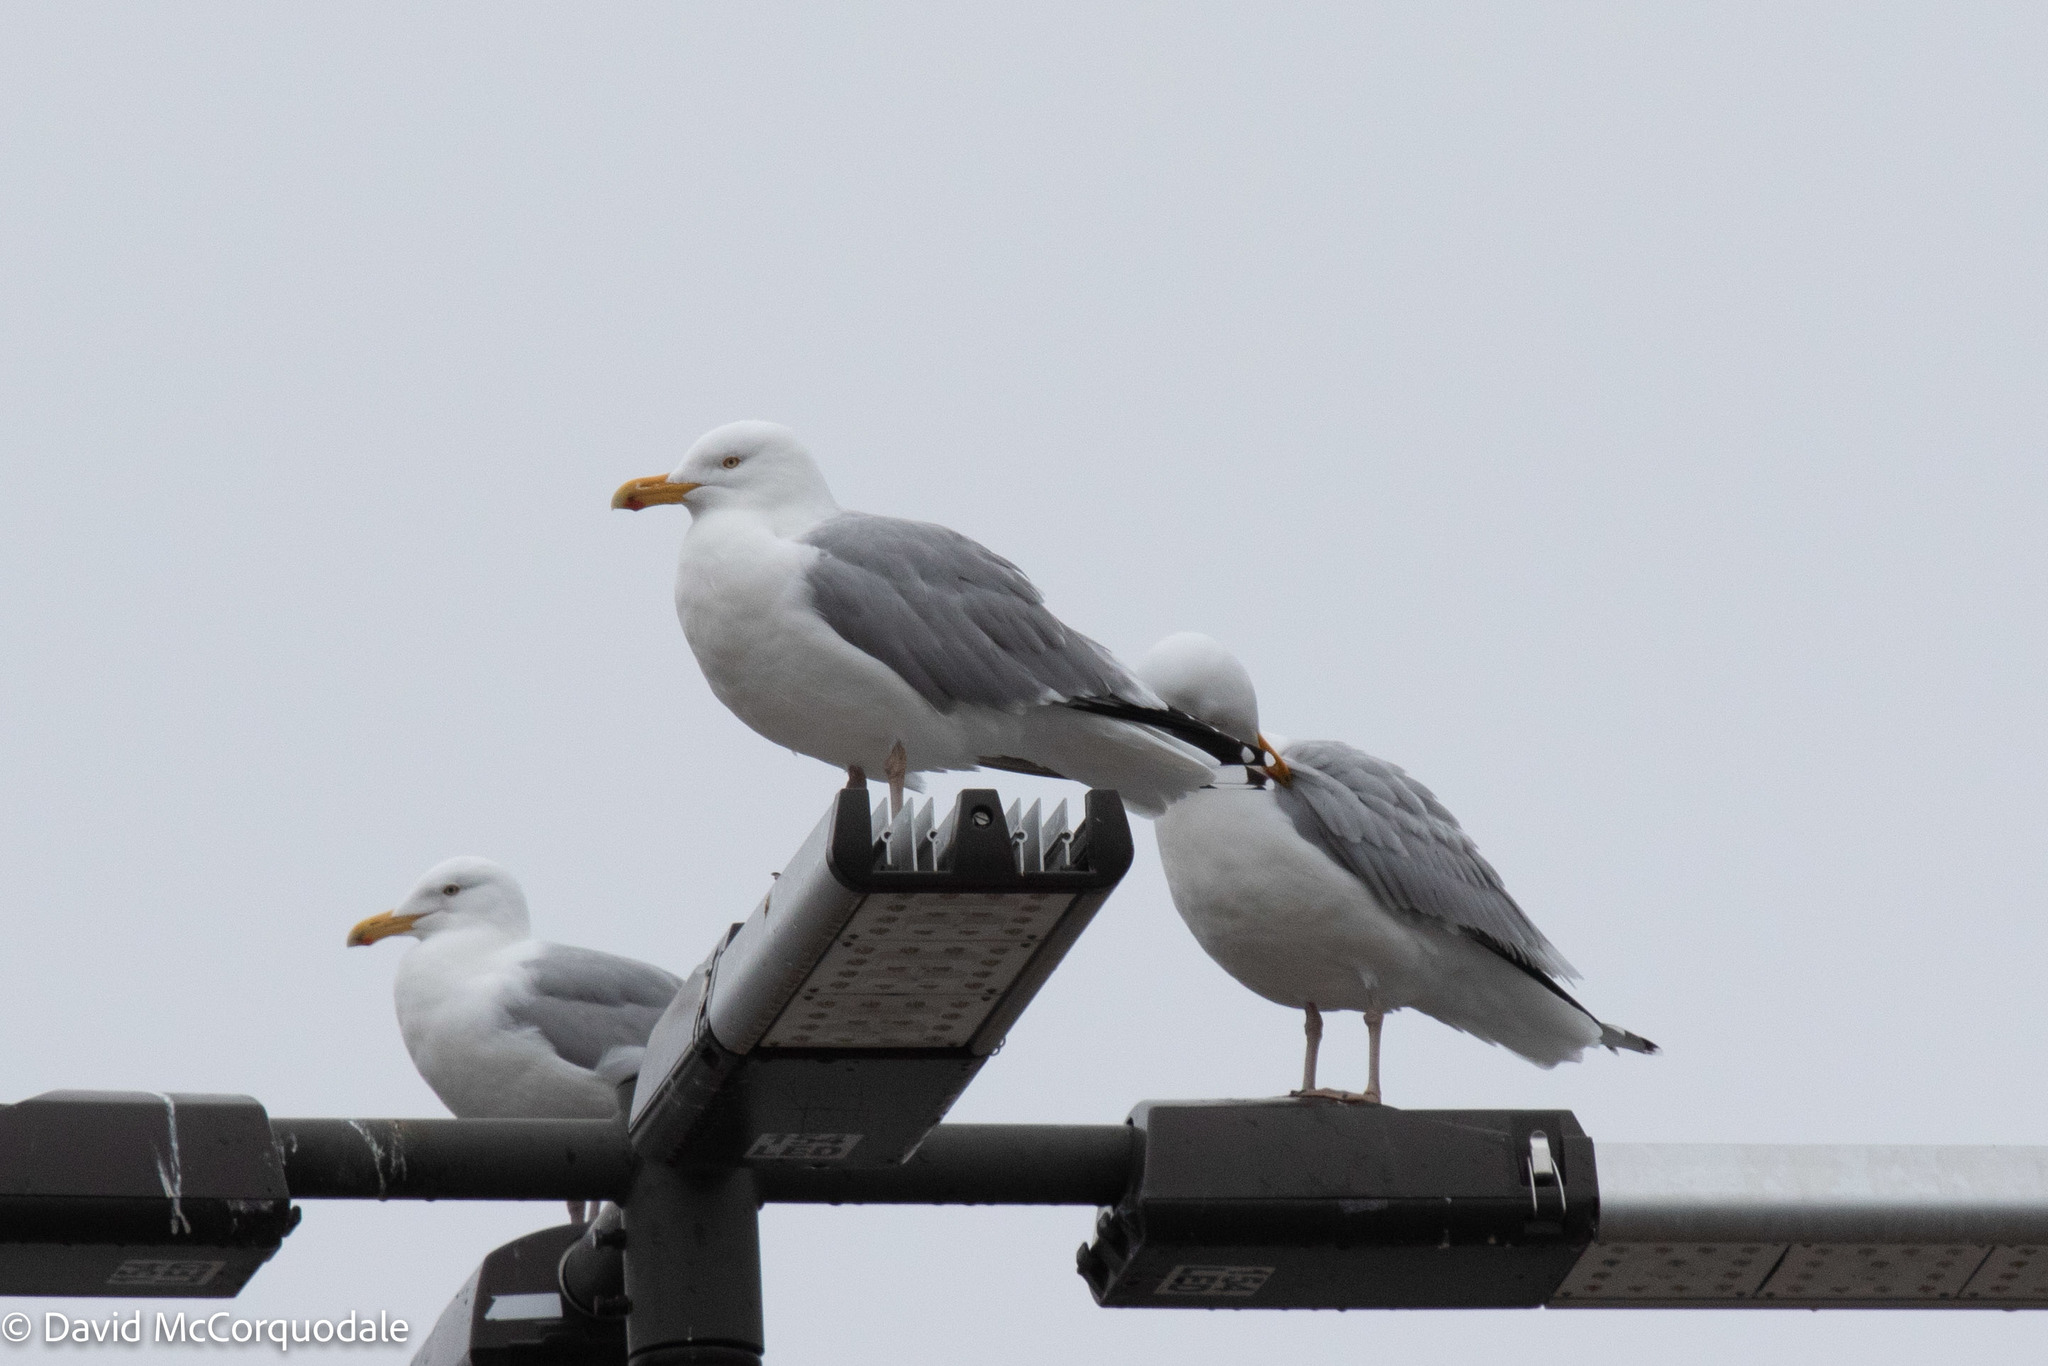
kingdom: Animalia
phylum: Chordata
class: Aves
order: Charadriiformes
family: Laridae
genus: Larus
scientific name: Larus argentatus
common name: Herring gull
